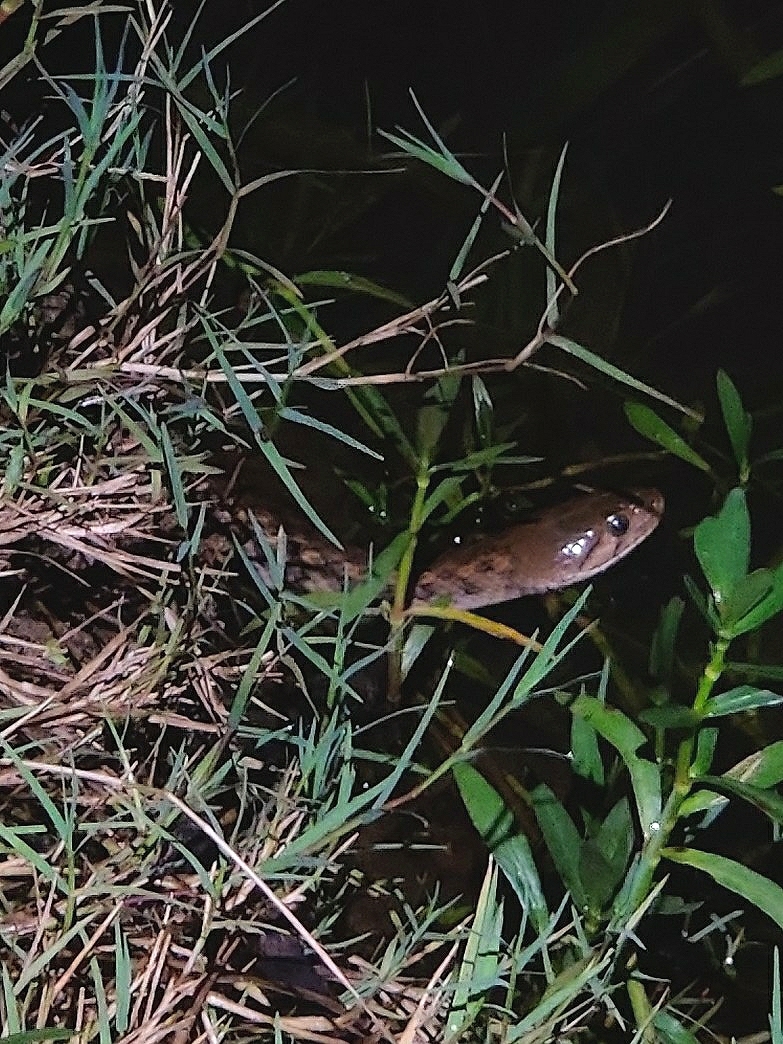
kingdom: Animalia
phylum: Chordata
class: Squamata
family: Colubridae
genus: Fowlea
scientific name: Fowlea piscator
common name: Asiatic water snake
